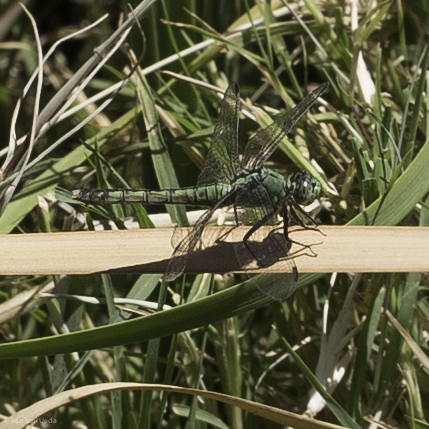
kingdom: Animalia
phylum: Arthropoda
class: Insecta
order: Odonata
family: Libellulidae
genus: Erythemis
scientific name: Erythemis collocata
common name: Western pondhawk
